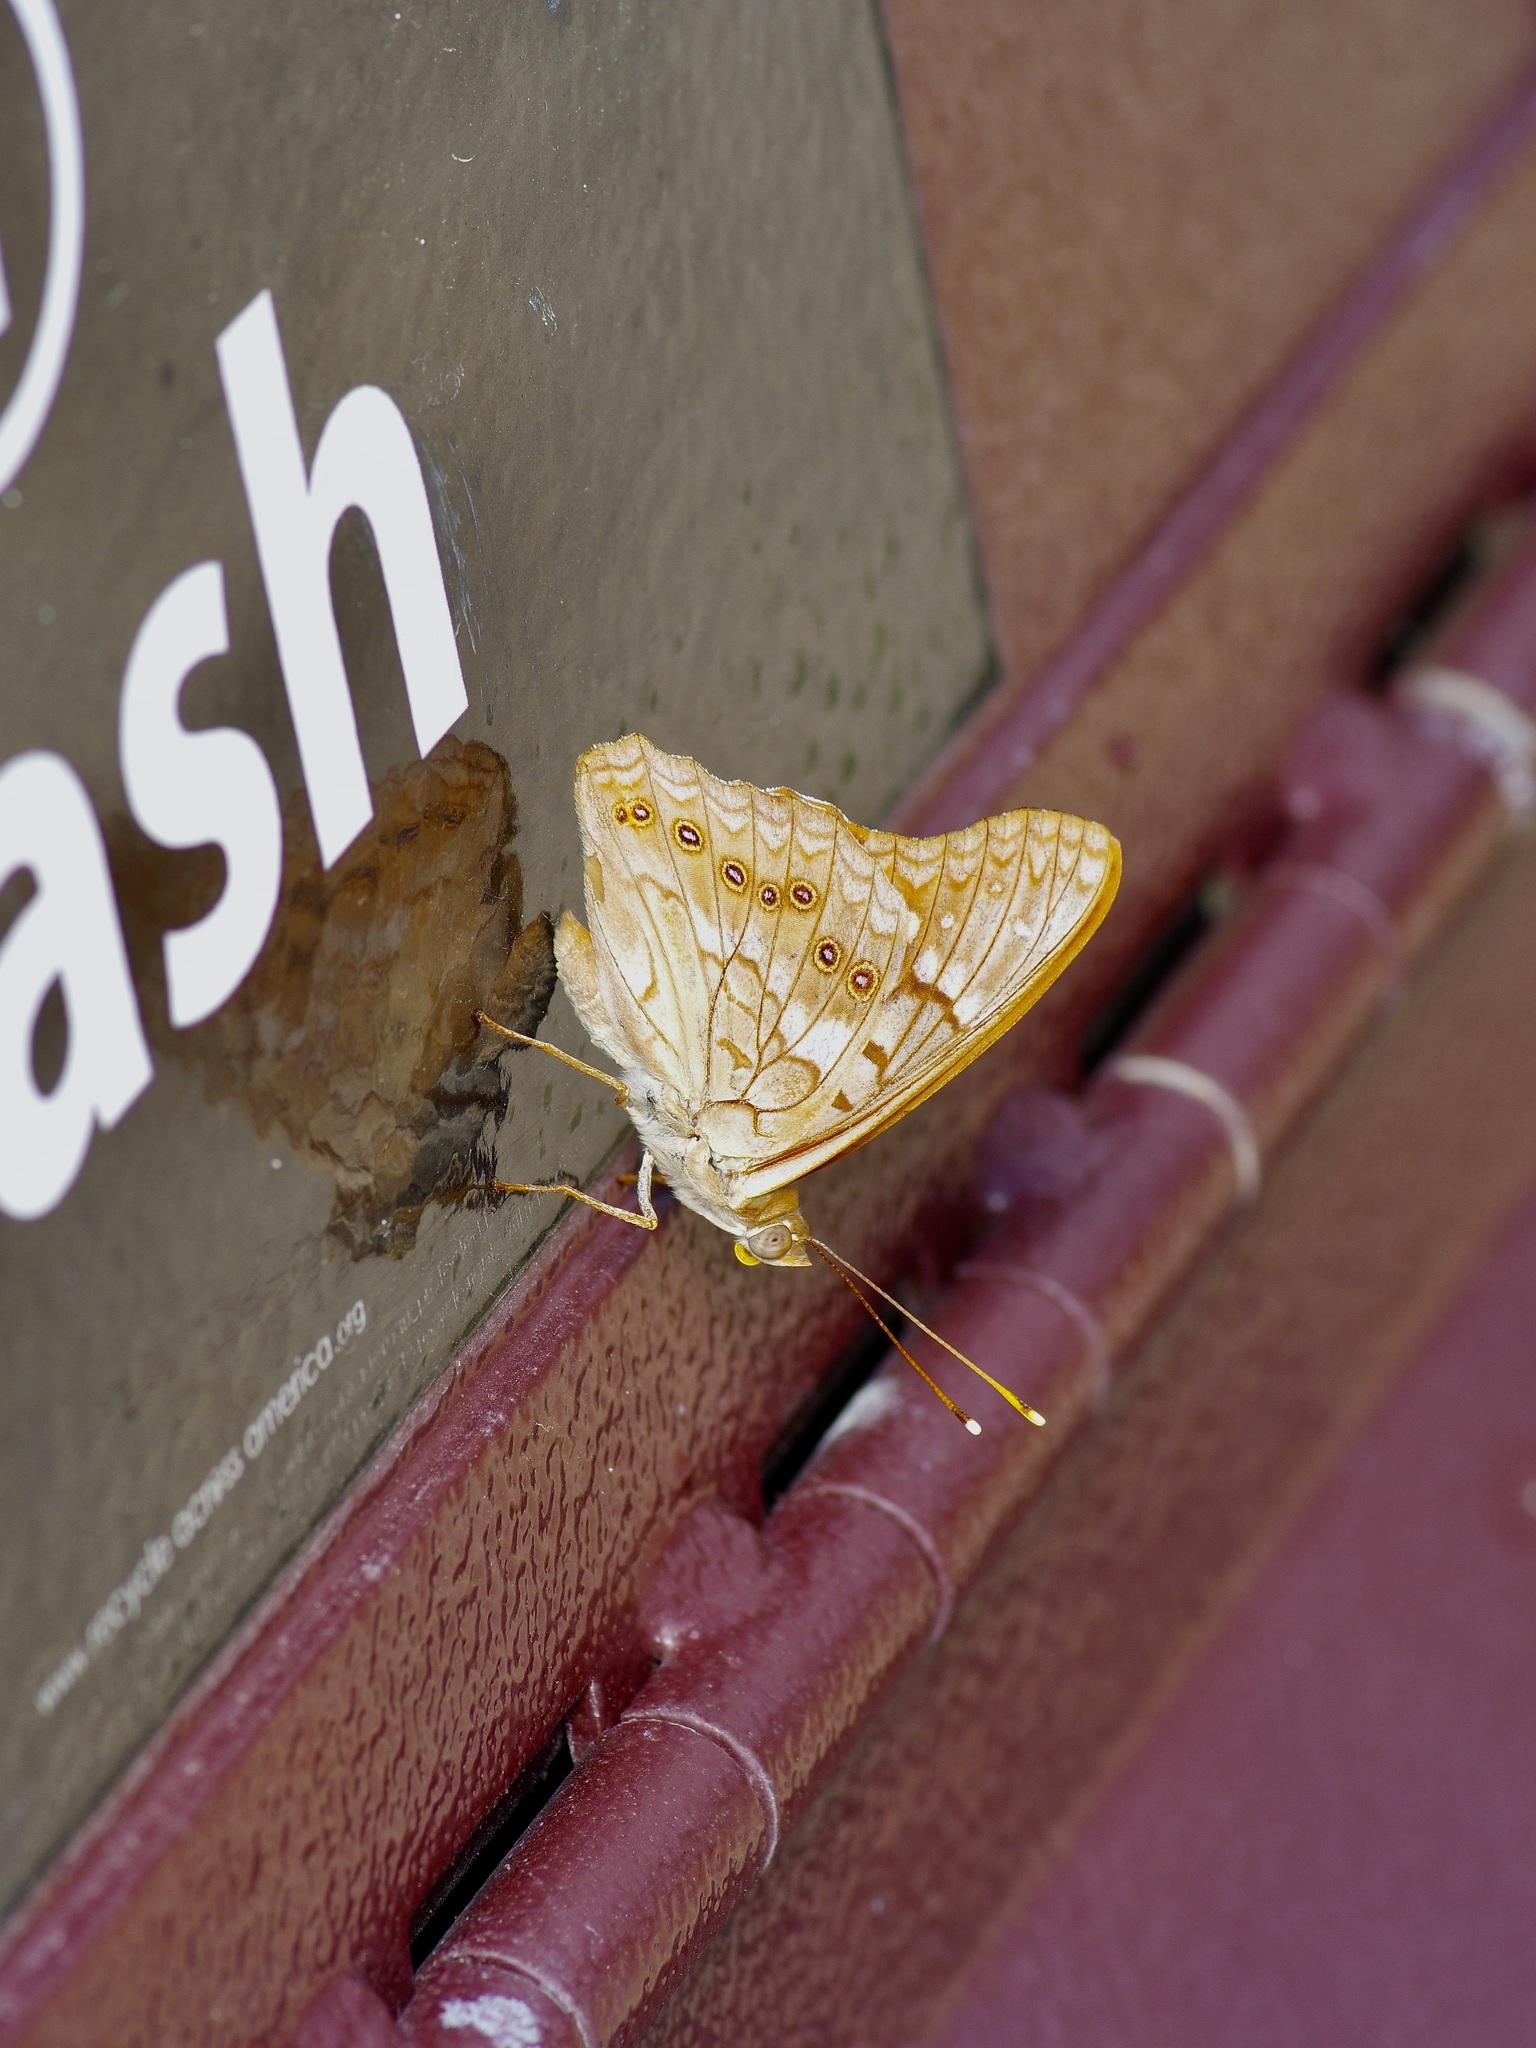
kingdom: Animalia
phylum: Arthropoda
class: Insecta
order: Lepidoptera
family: Nymphalidae
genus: Asterocampa
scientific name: Asterocampa clyton
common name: Tawny emperor
